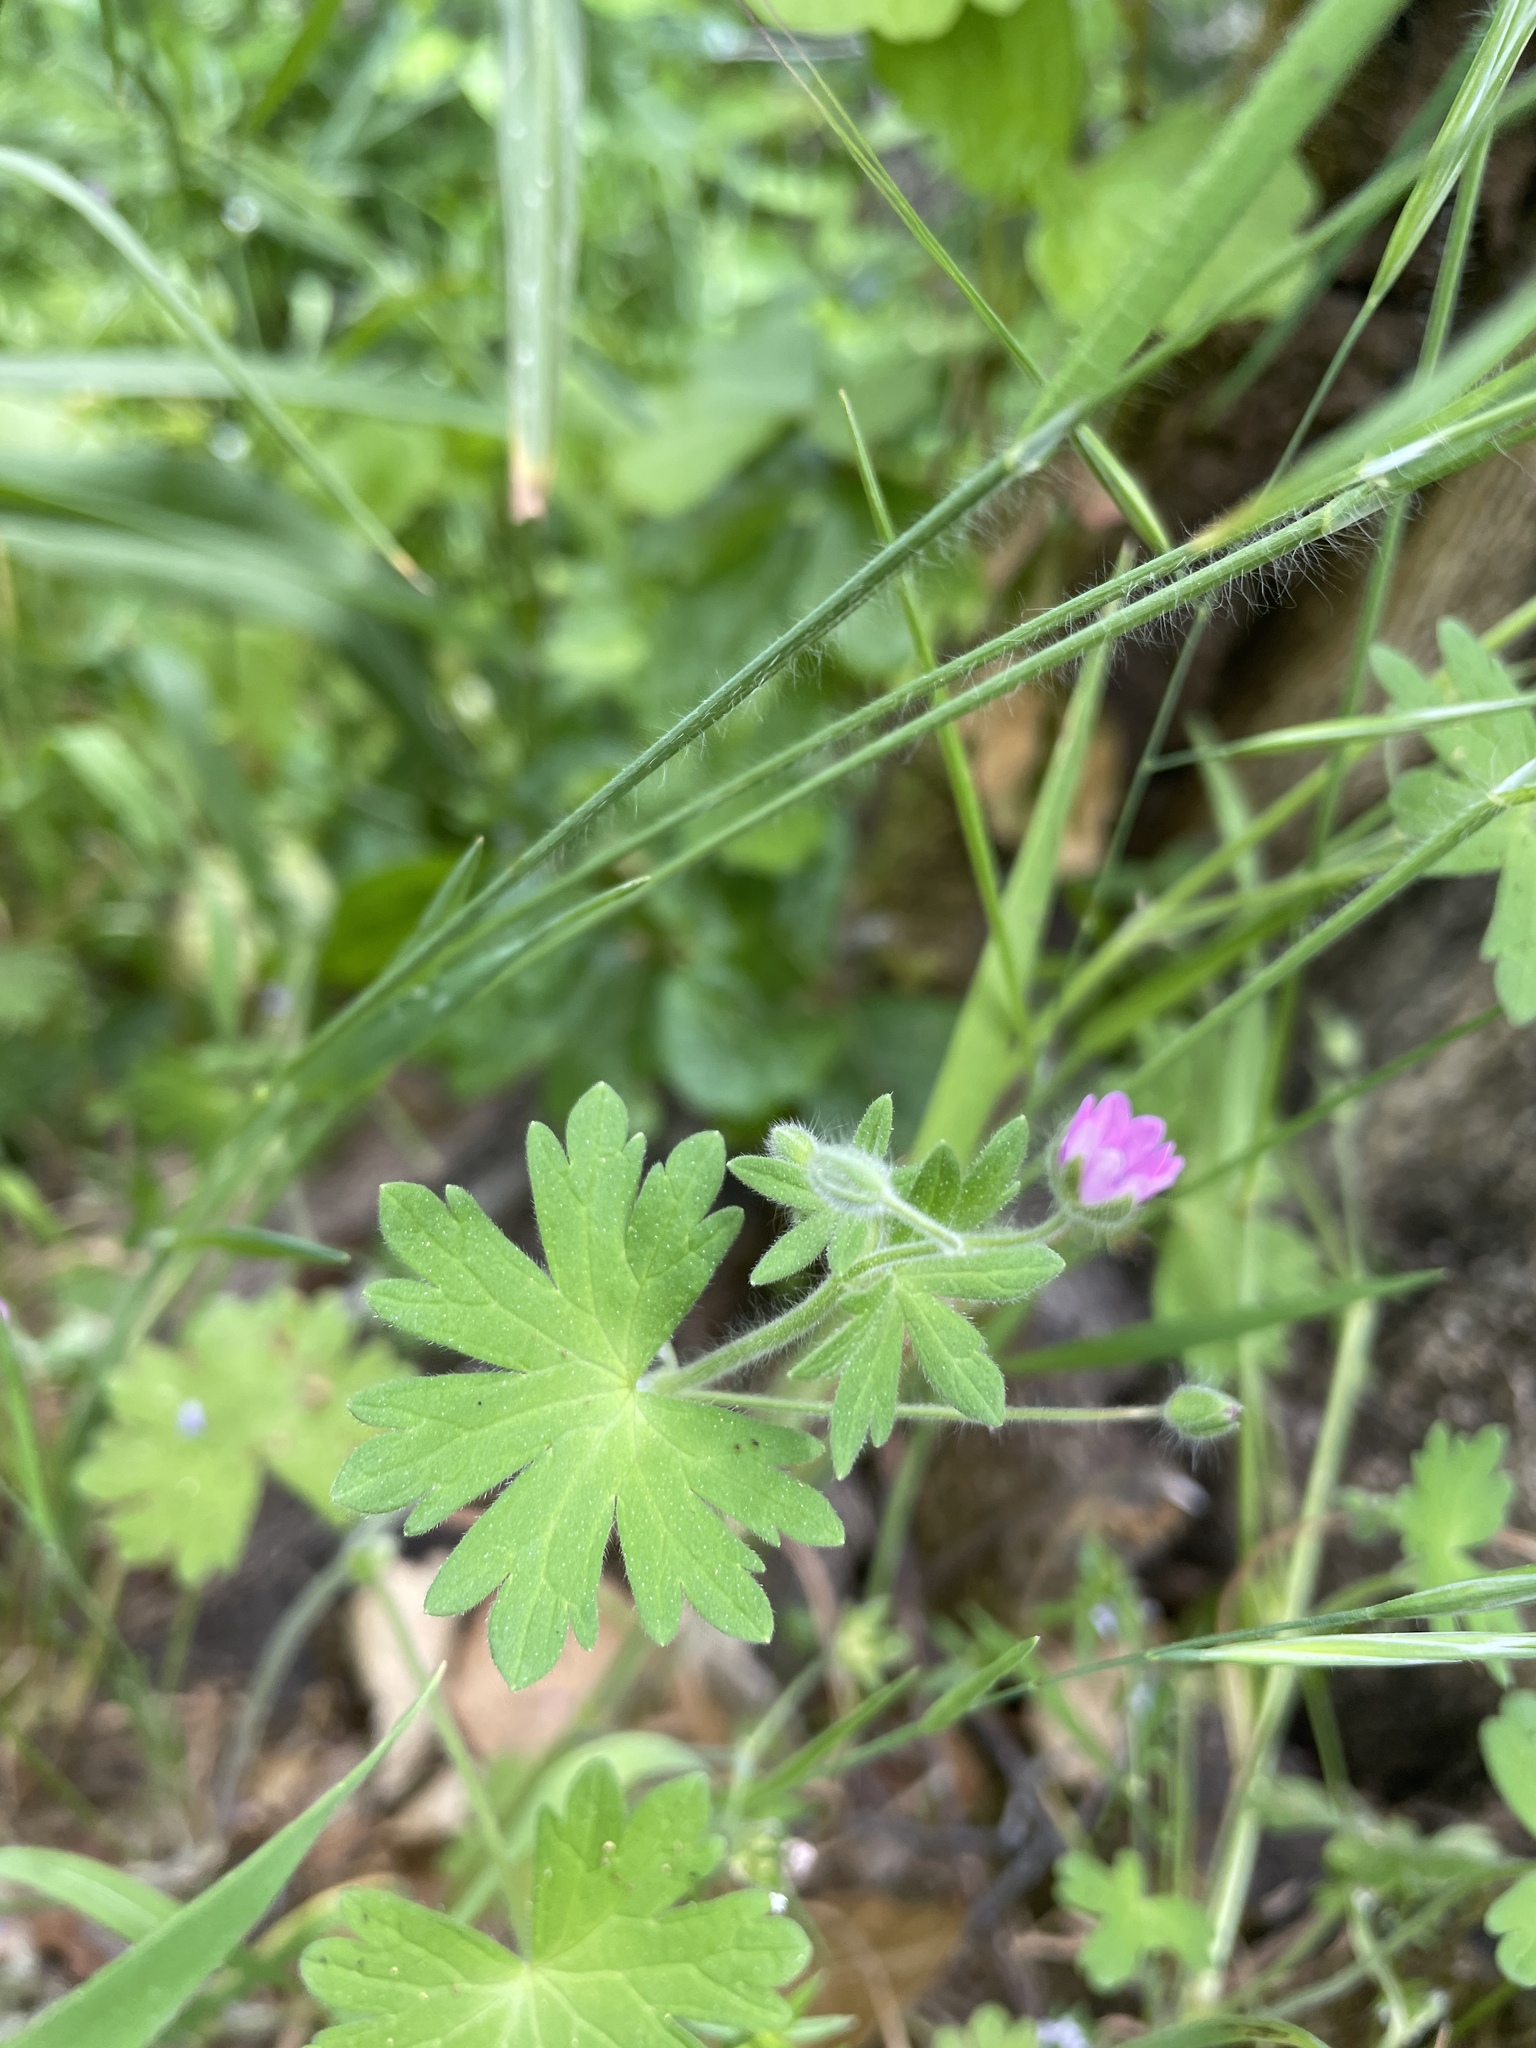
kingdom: Plantae
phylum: Tracheophyta
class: Magnoliopsida
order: Geraniales
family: Geraniaceae
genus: Geranium
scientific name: Geranium molle
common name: Dove's-foot crane's-bill
